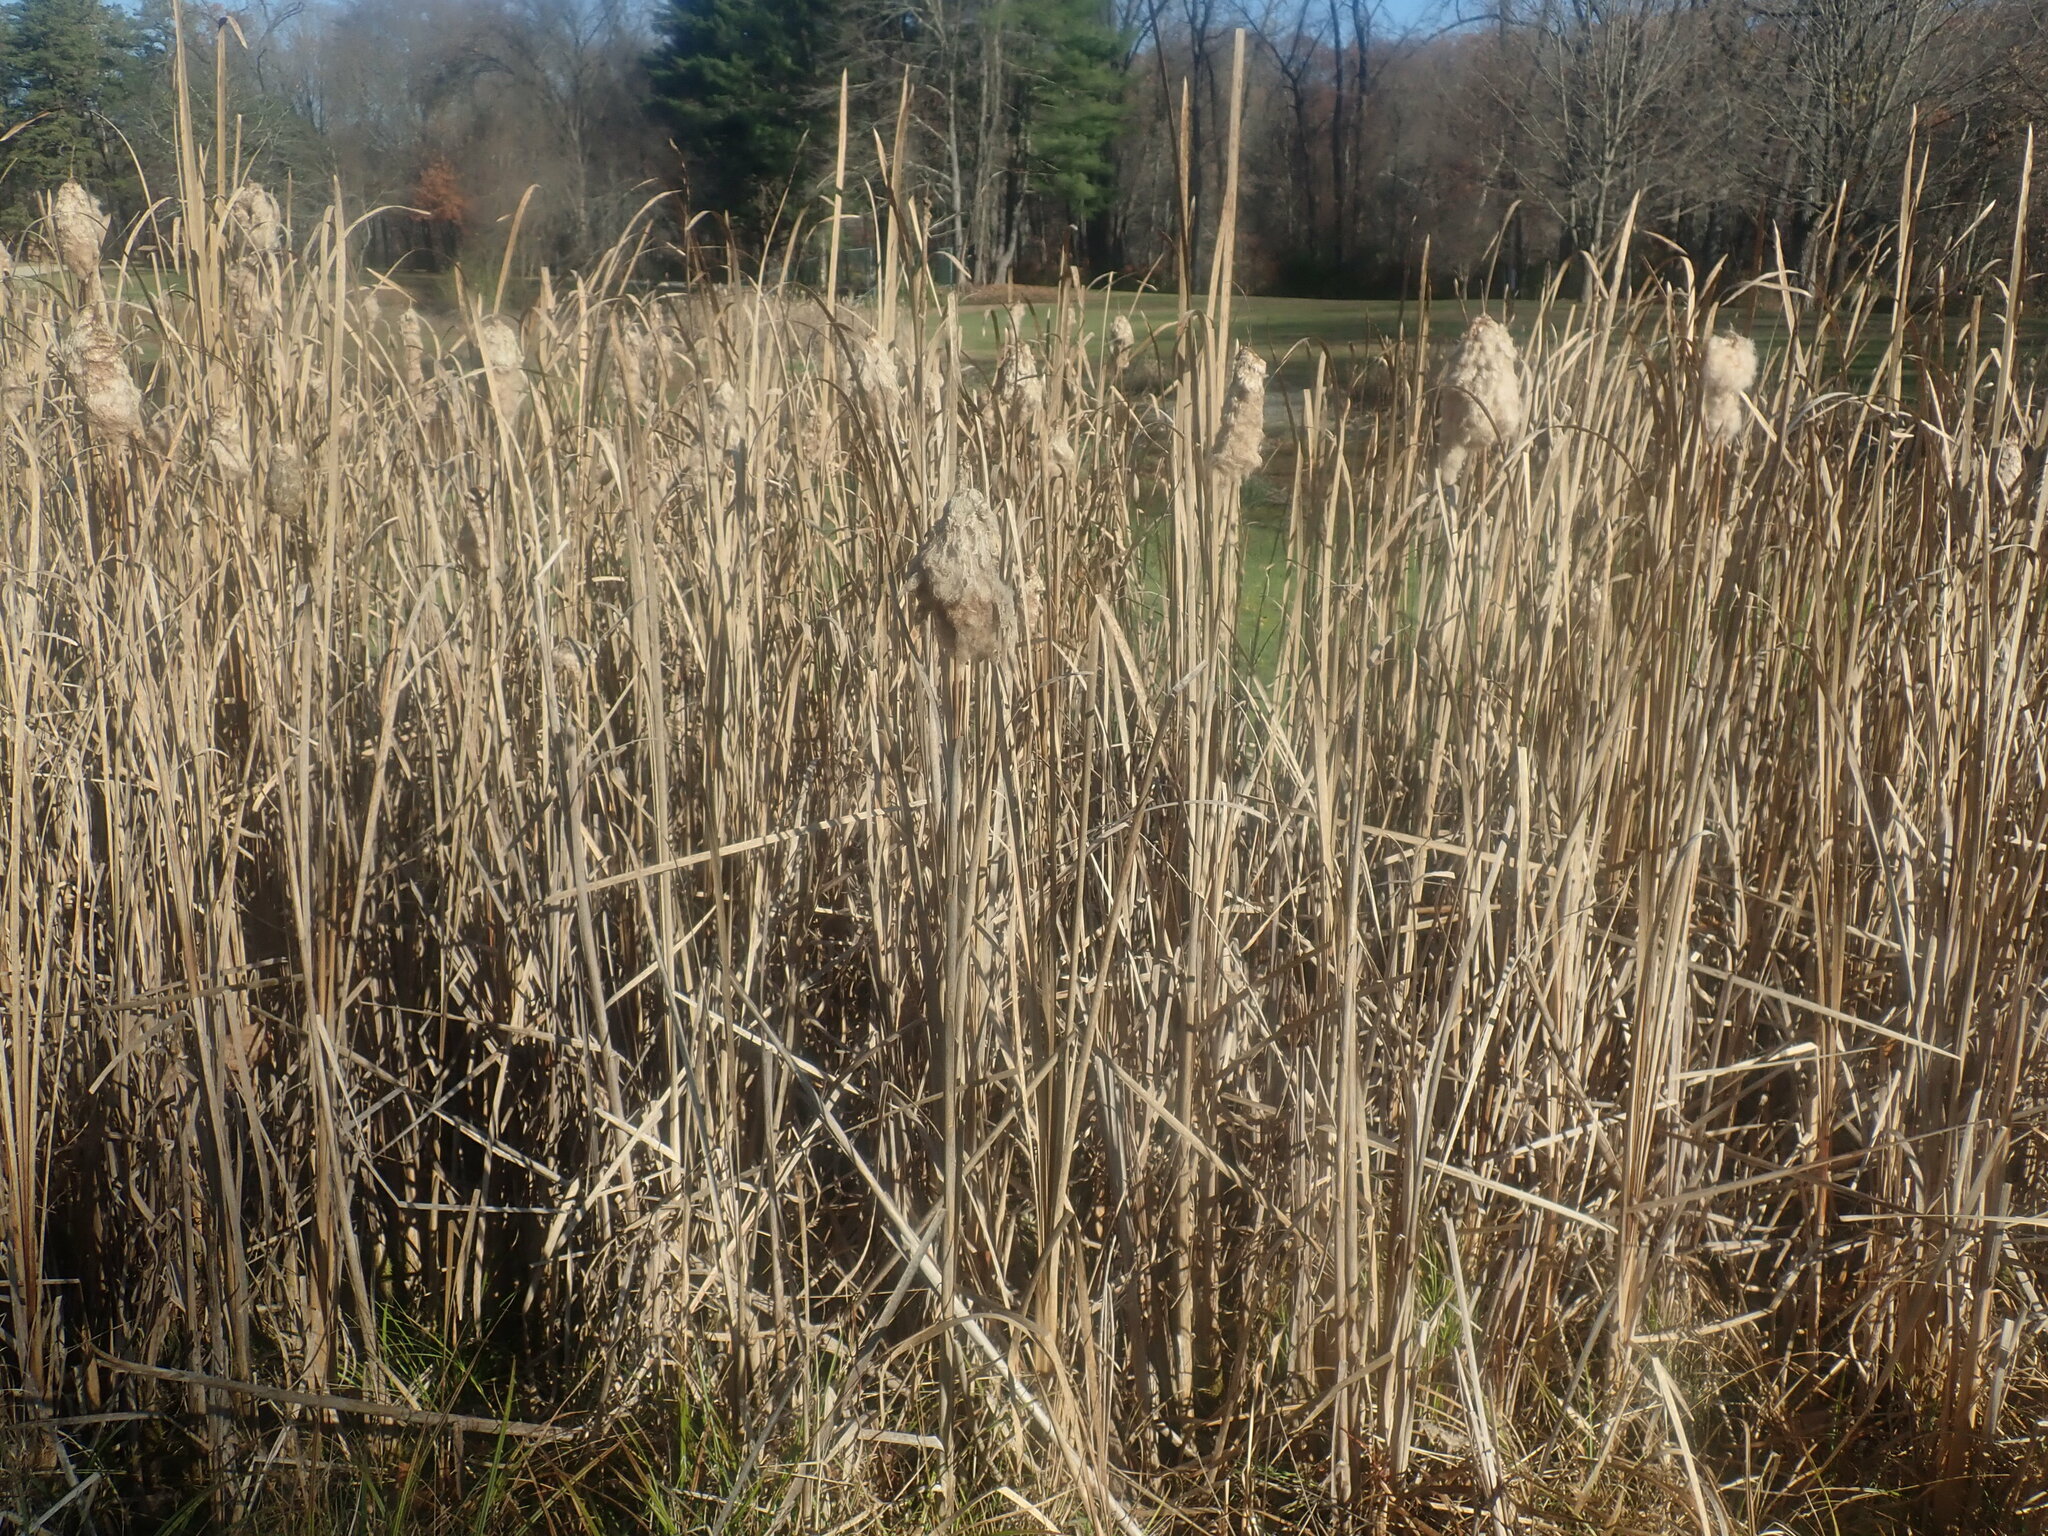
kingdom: Plantae
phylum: Tracheophyta
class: Liliopsida
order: Poales
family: Typhaceae
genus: Typha
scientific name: Typha
